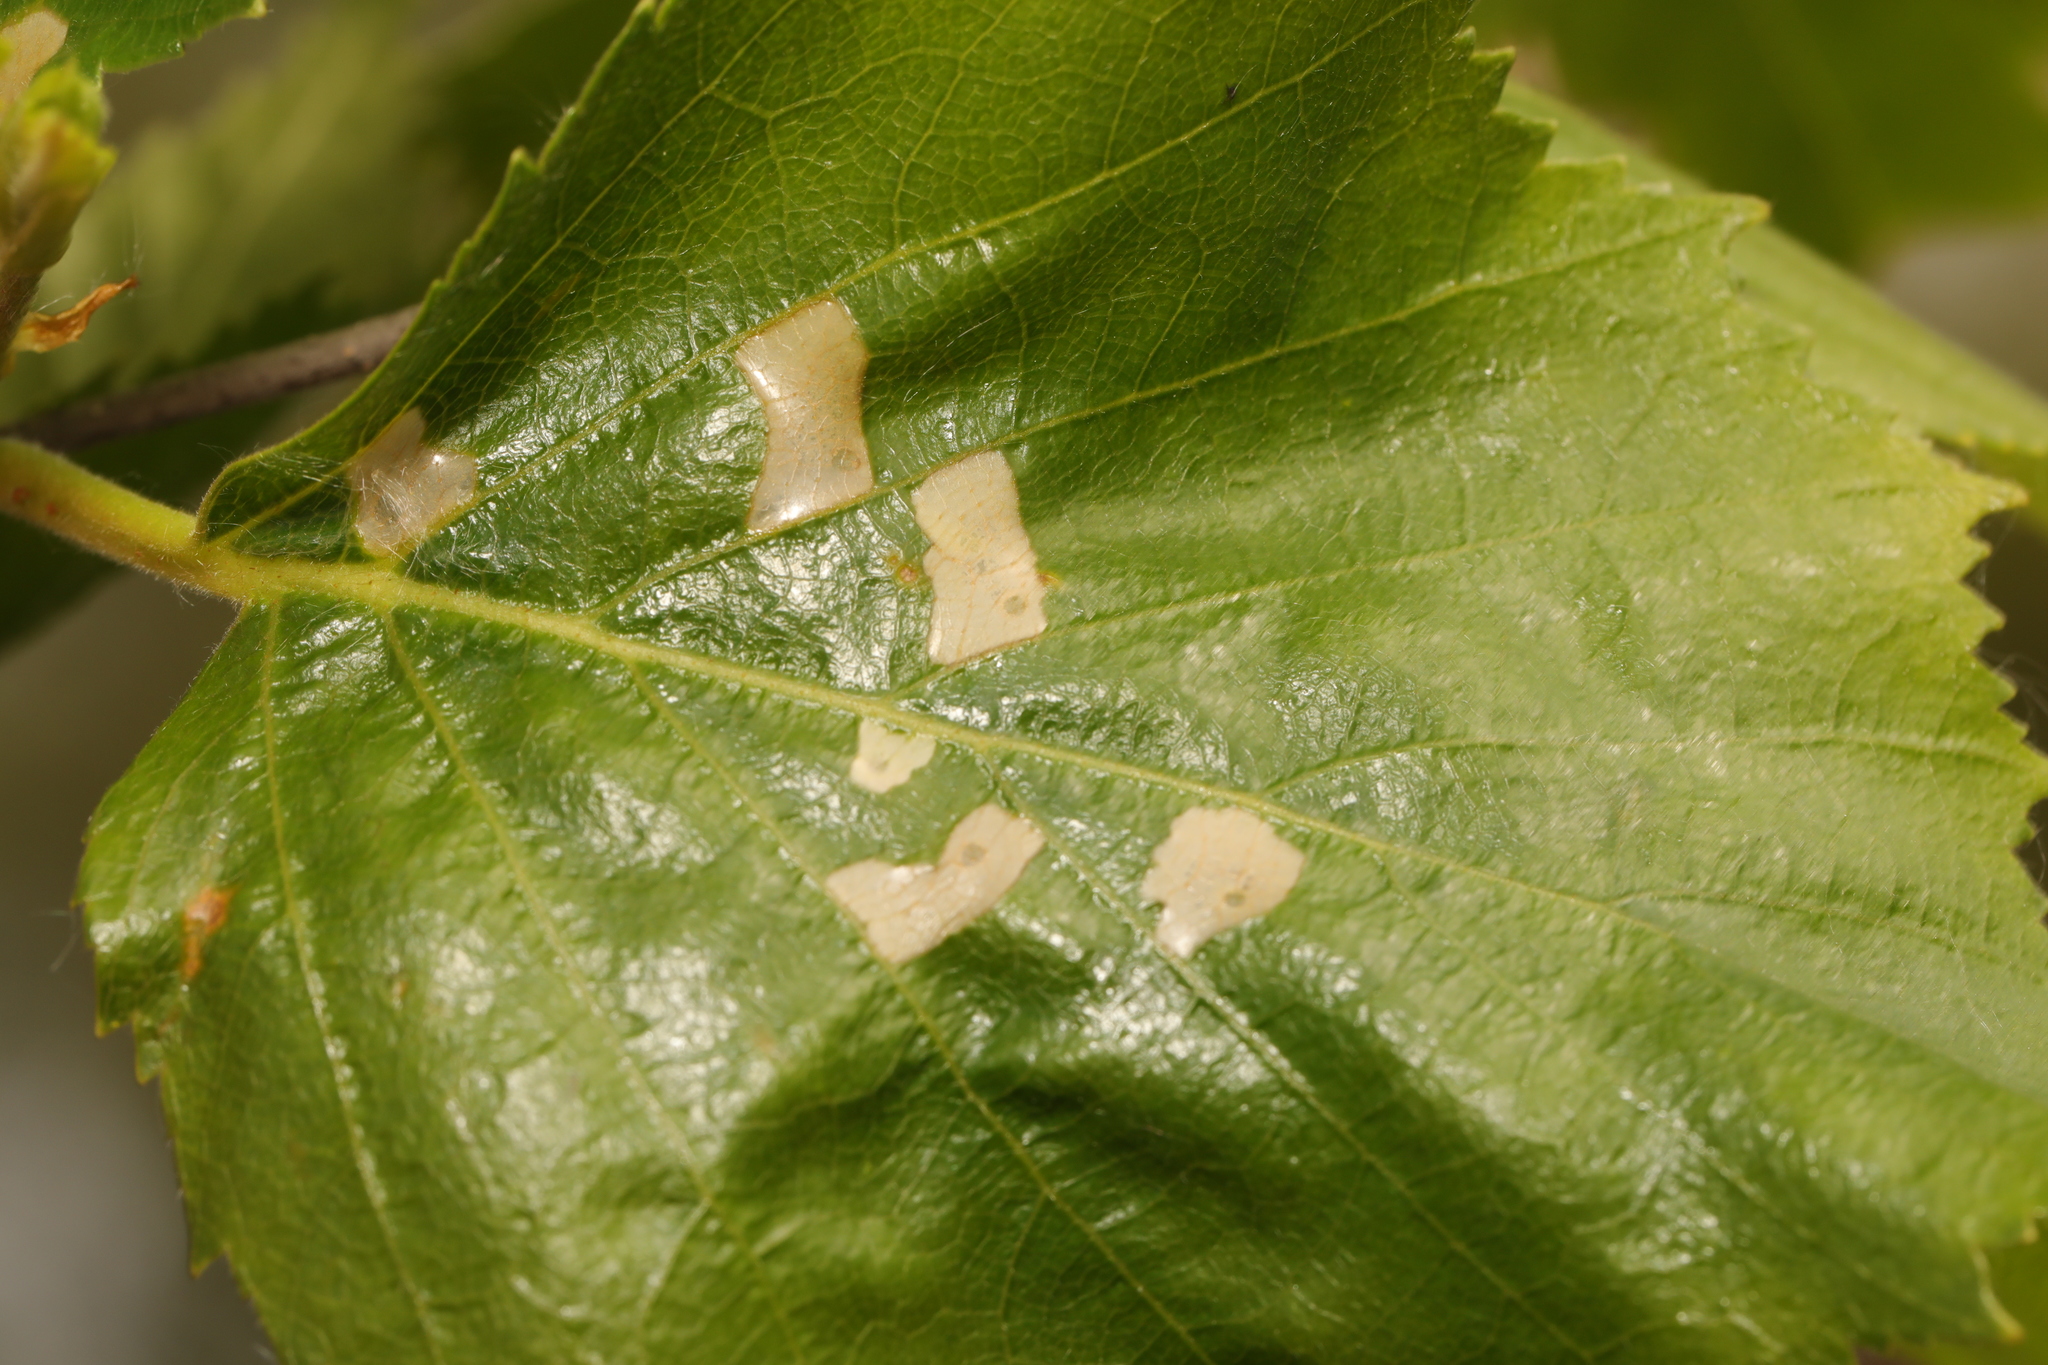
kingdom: Animalia
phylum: Arthropoda
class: Insecta
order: Lepidoptera
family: Coleophoridae
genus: Coleophora
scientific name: Coleophora serratella
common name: Common case-bearer
